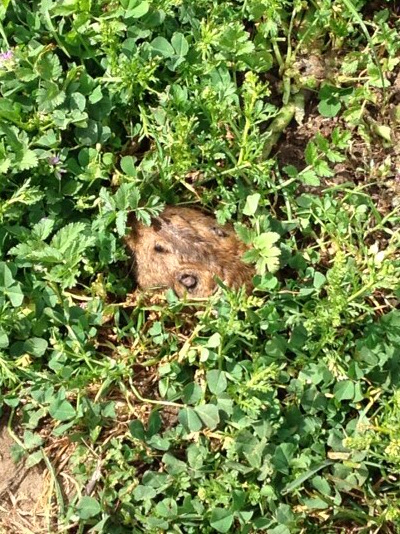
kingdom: Animalia
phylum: Chordata
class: Mammalia
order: Rodentia
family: Geomyidae
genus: Thomomys
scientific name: Thomomys bottae
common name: Botta's pocket gopher
